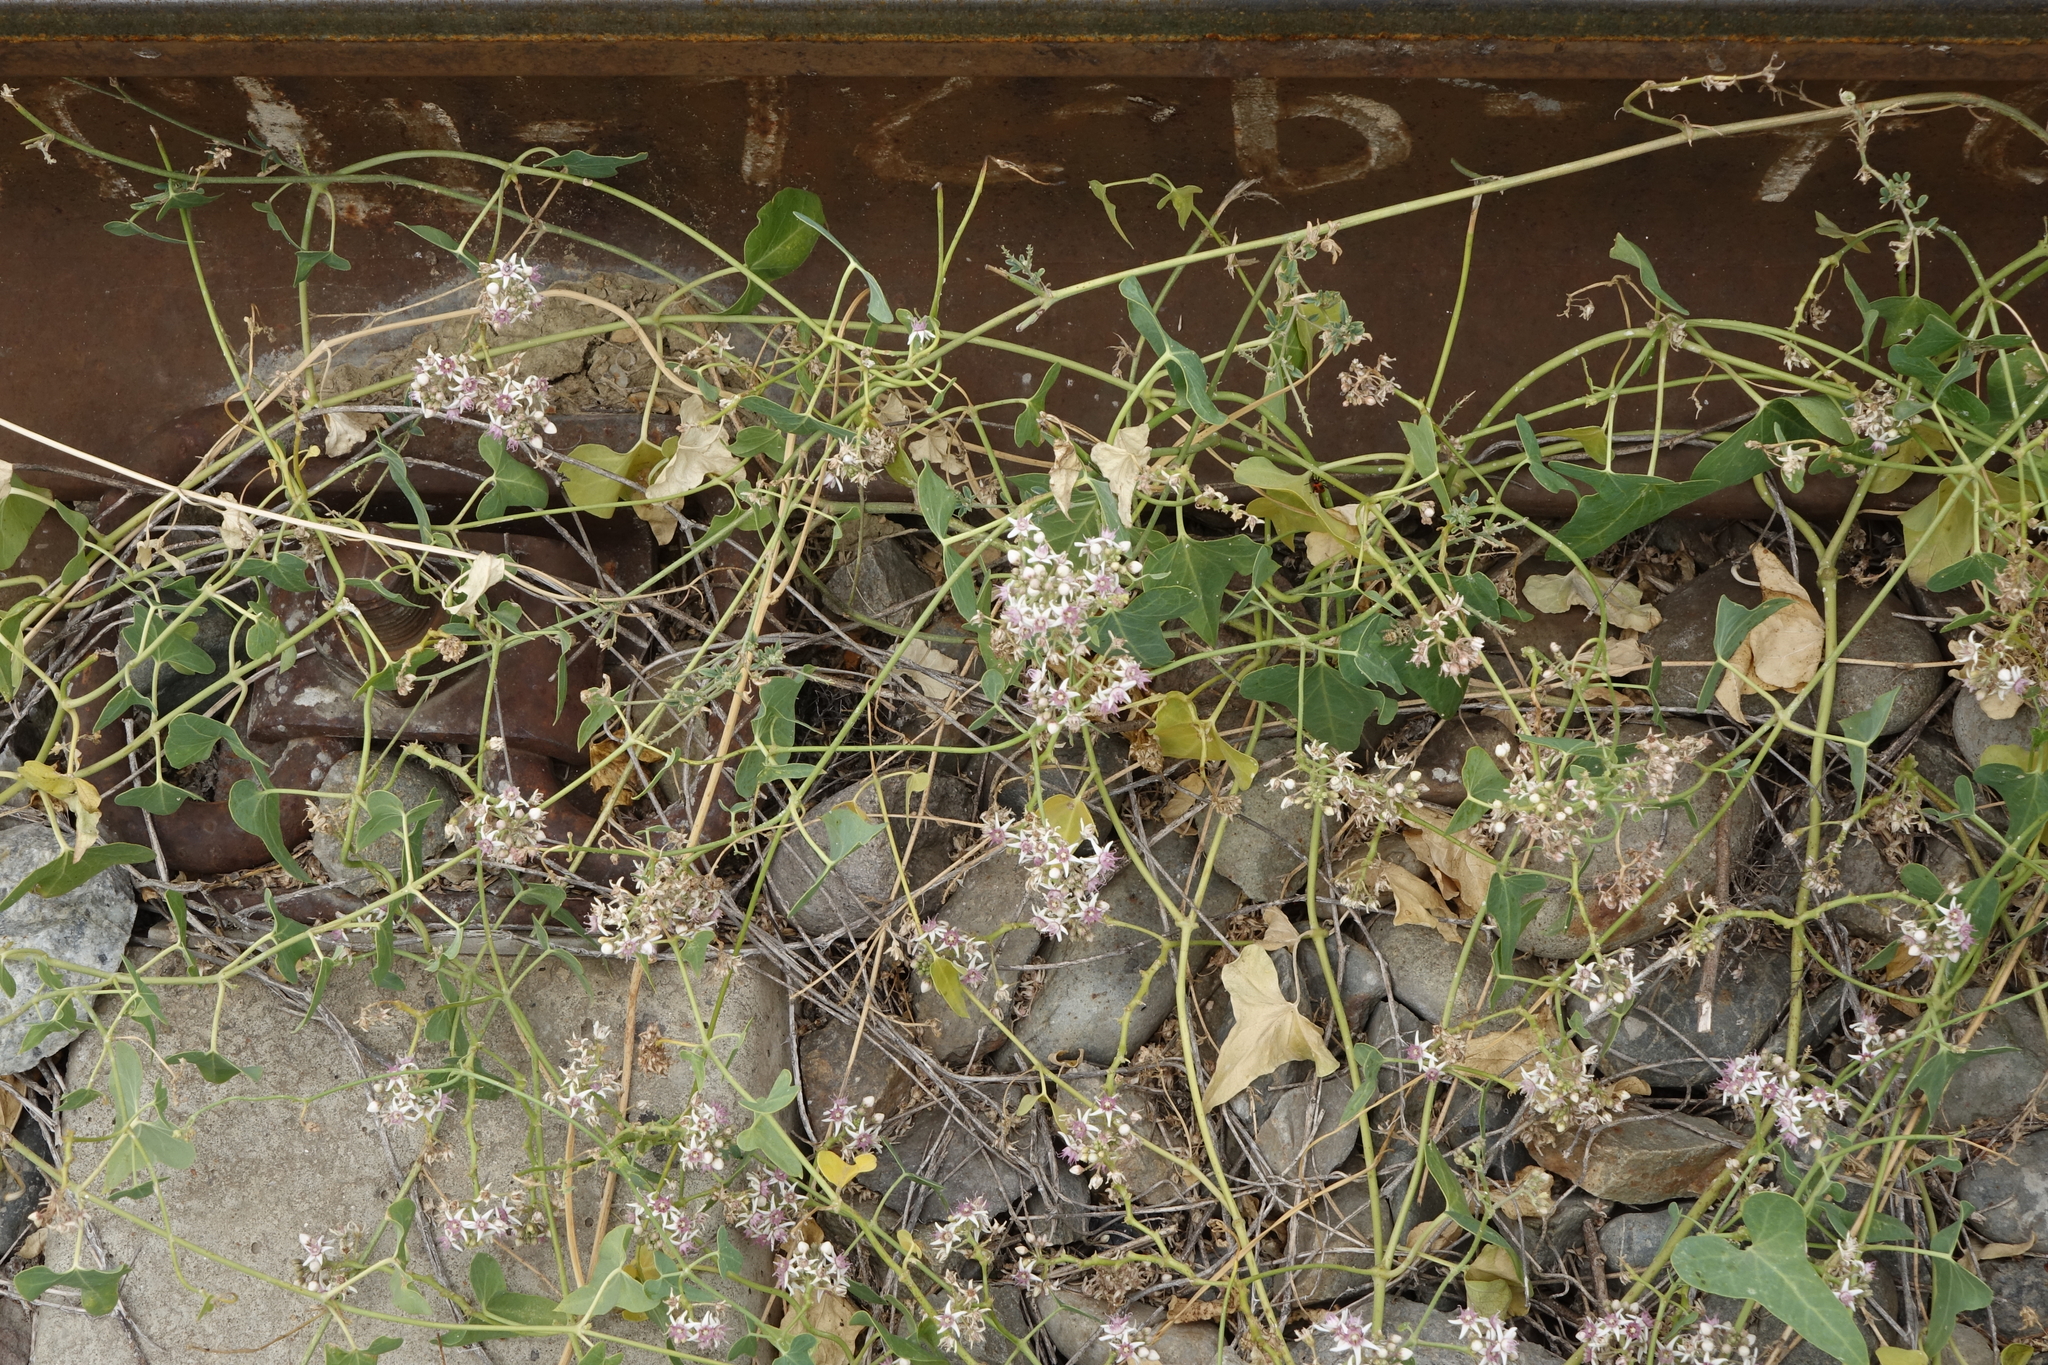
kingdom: Plantae
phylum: Tracheophyta
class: Magnoliopsida
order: Gentianales
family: Apocynaceae
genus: Cynanchum
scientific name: Cynanchum acutum
